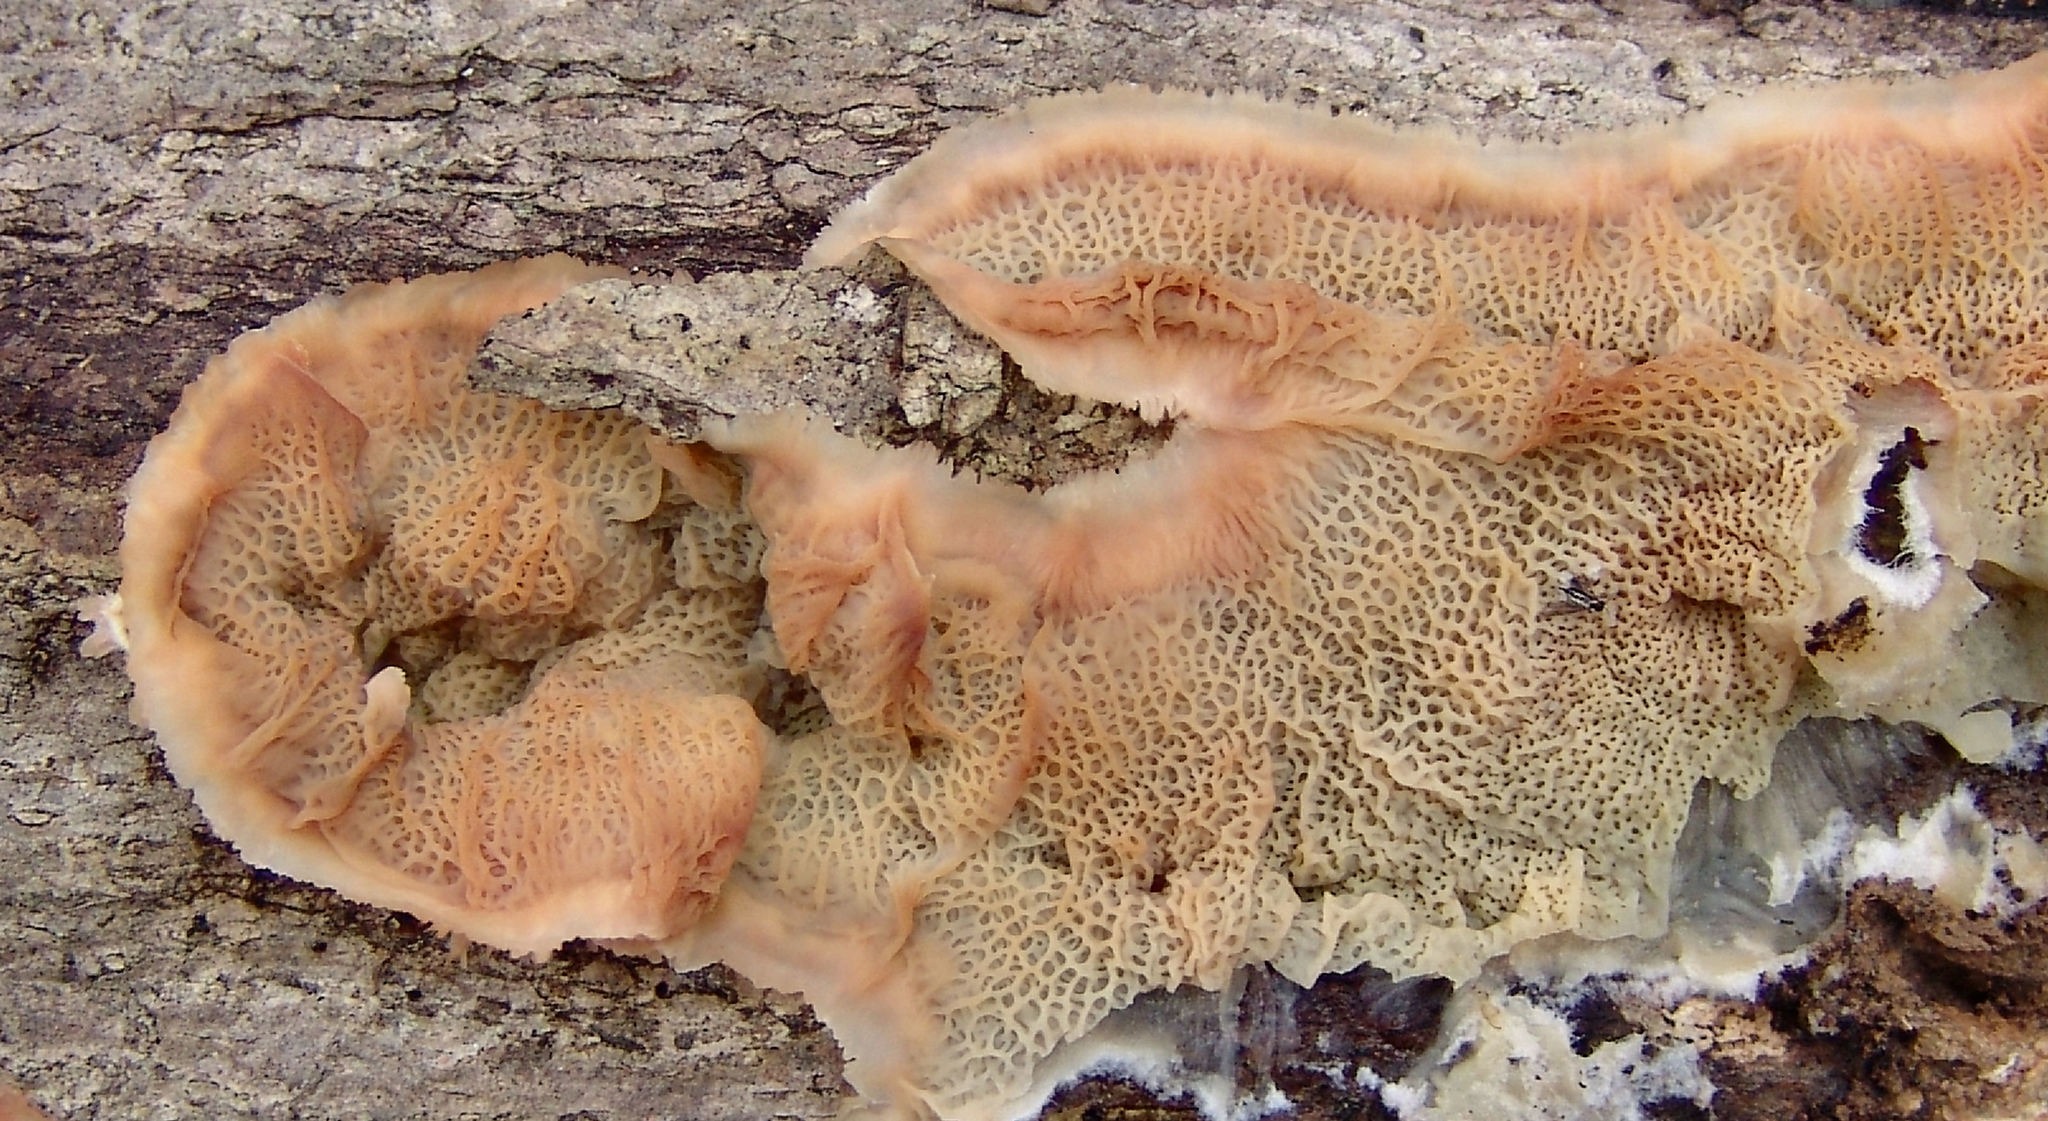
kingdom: Fungi
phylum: Basidiomycota
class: Agaricomycetes
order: Polyporales
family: Meruliaceae
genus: Phlebia
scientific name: Phlebia tremellosa
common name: Jelly rot
